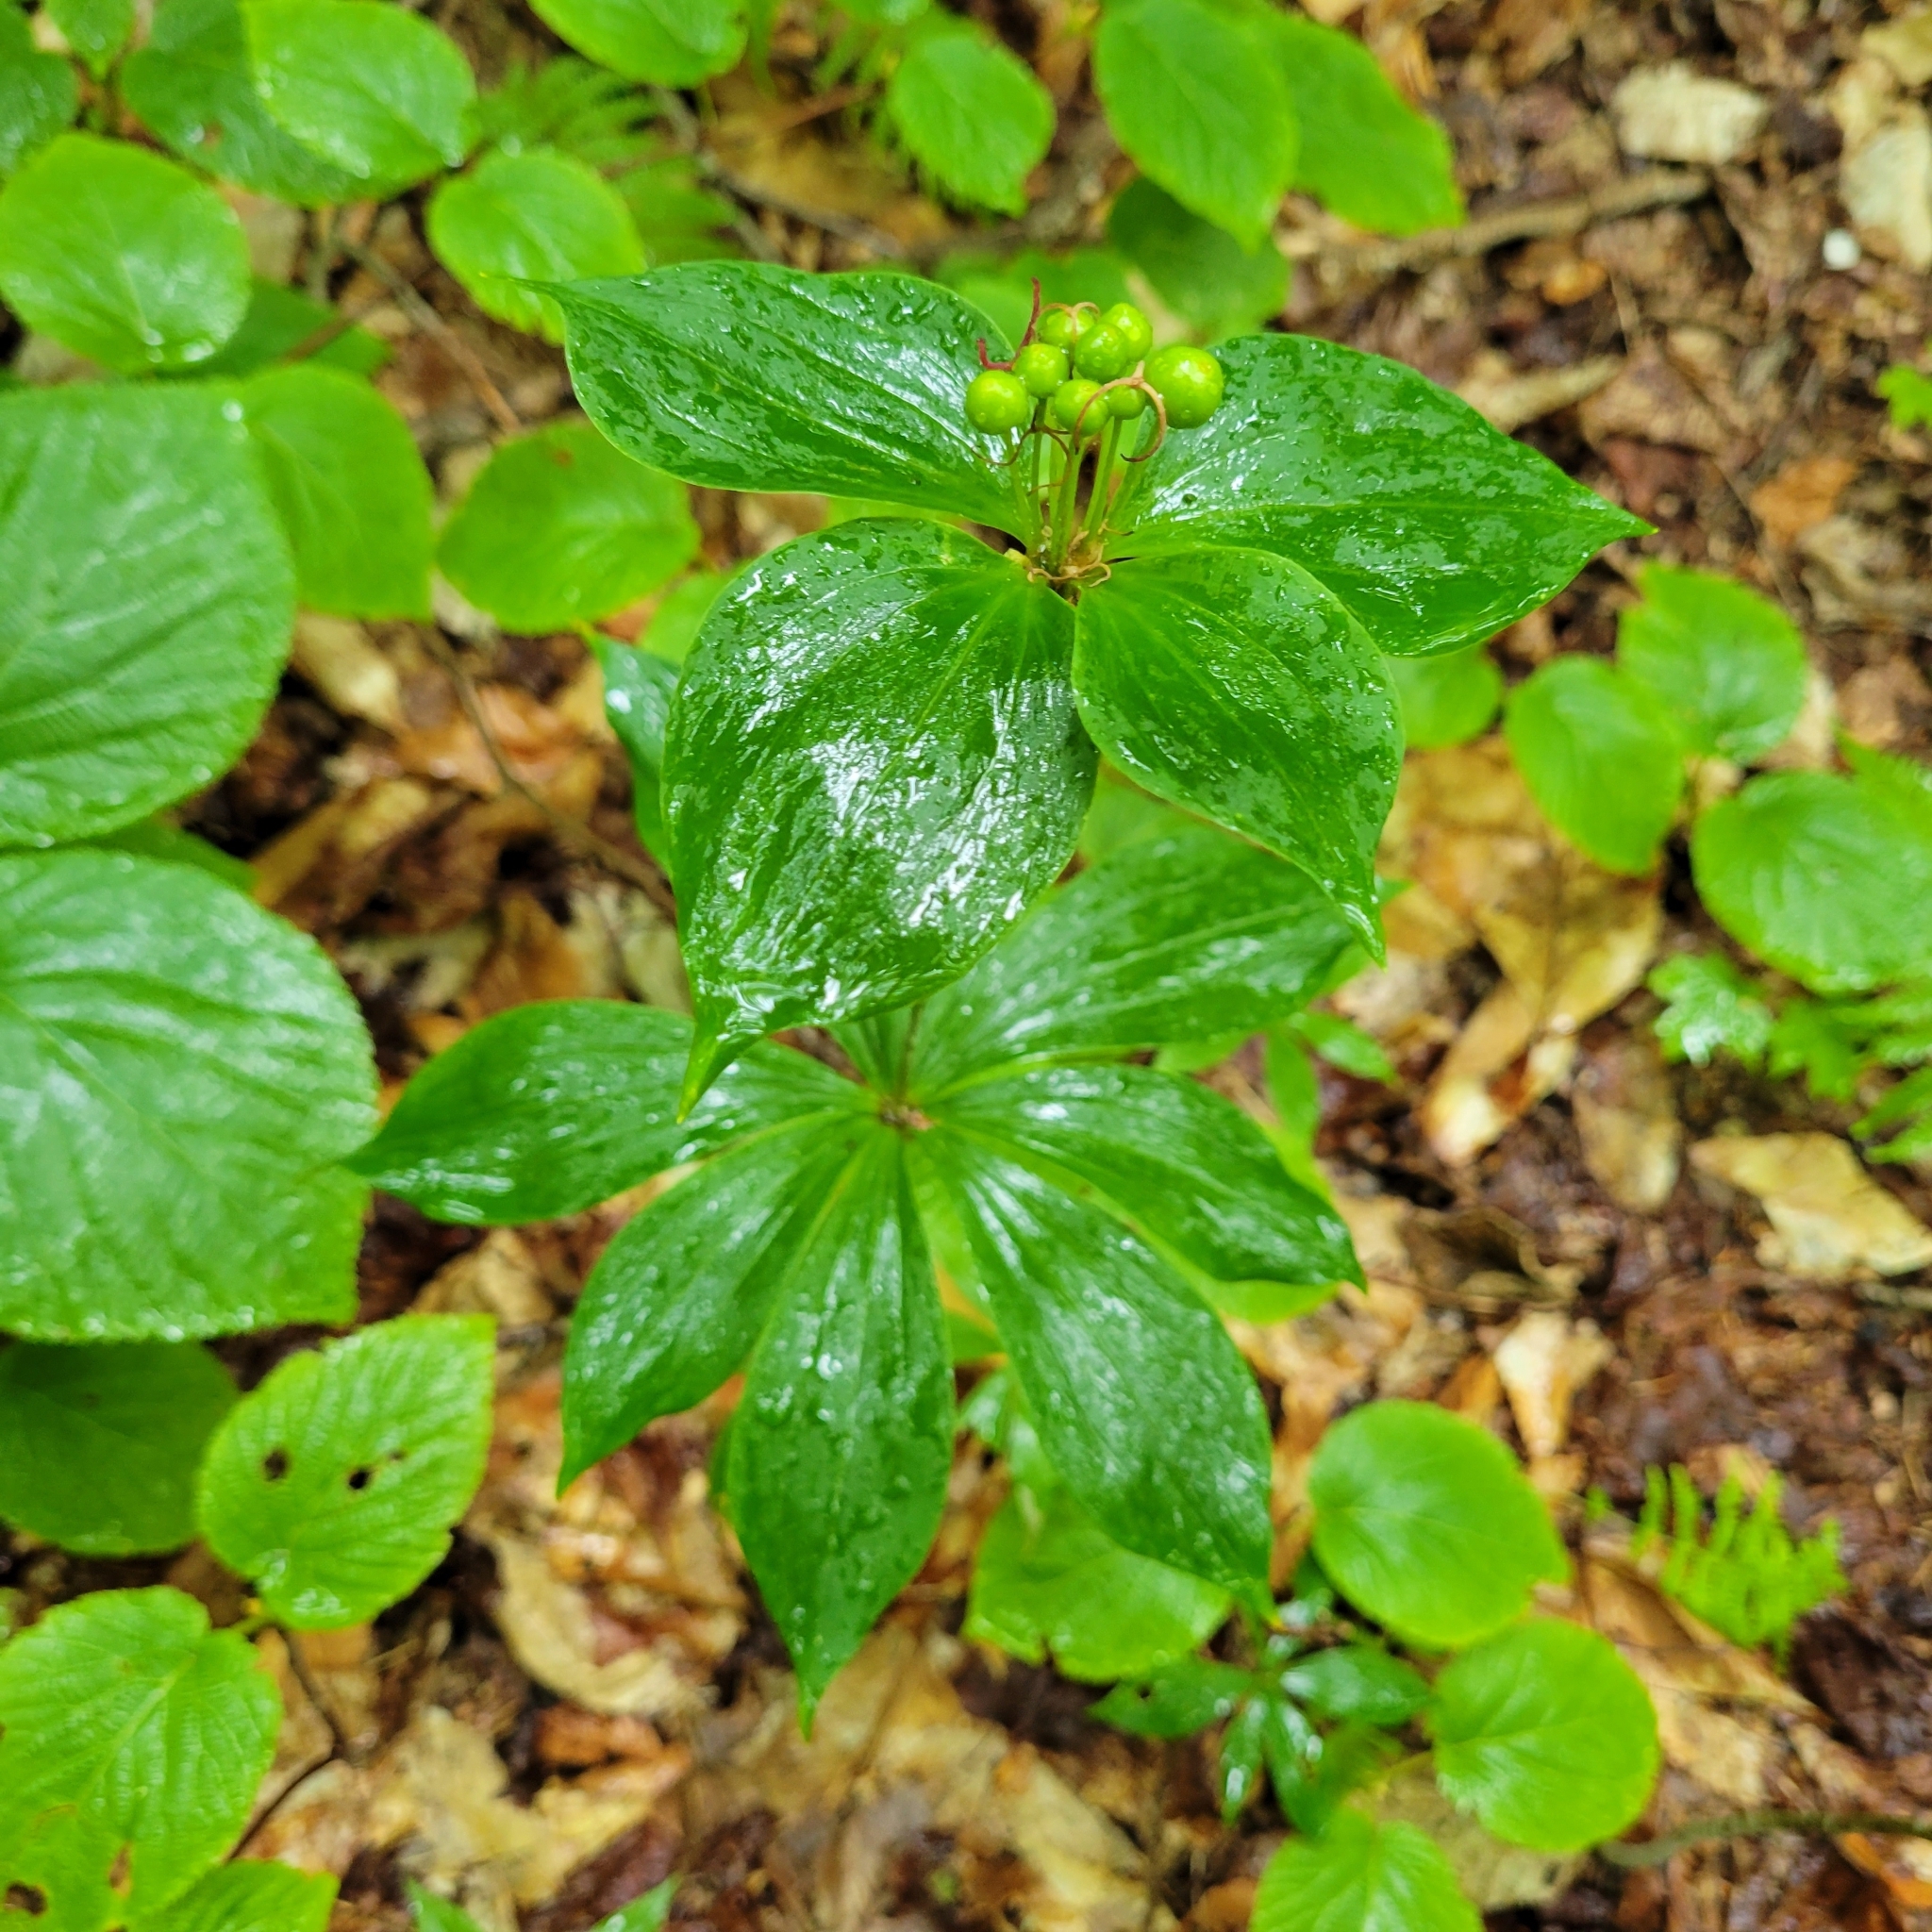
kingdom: Plantae
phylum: Tracheophyta
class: Liliopsida
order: Liliales
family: Liliaceae
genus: Medeola
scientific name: Medeola virginiana
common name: Indian cucumber-root
